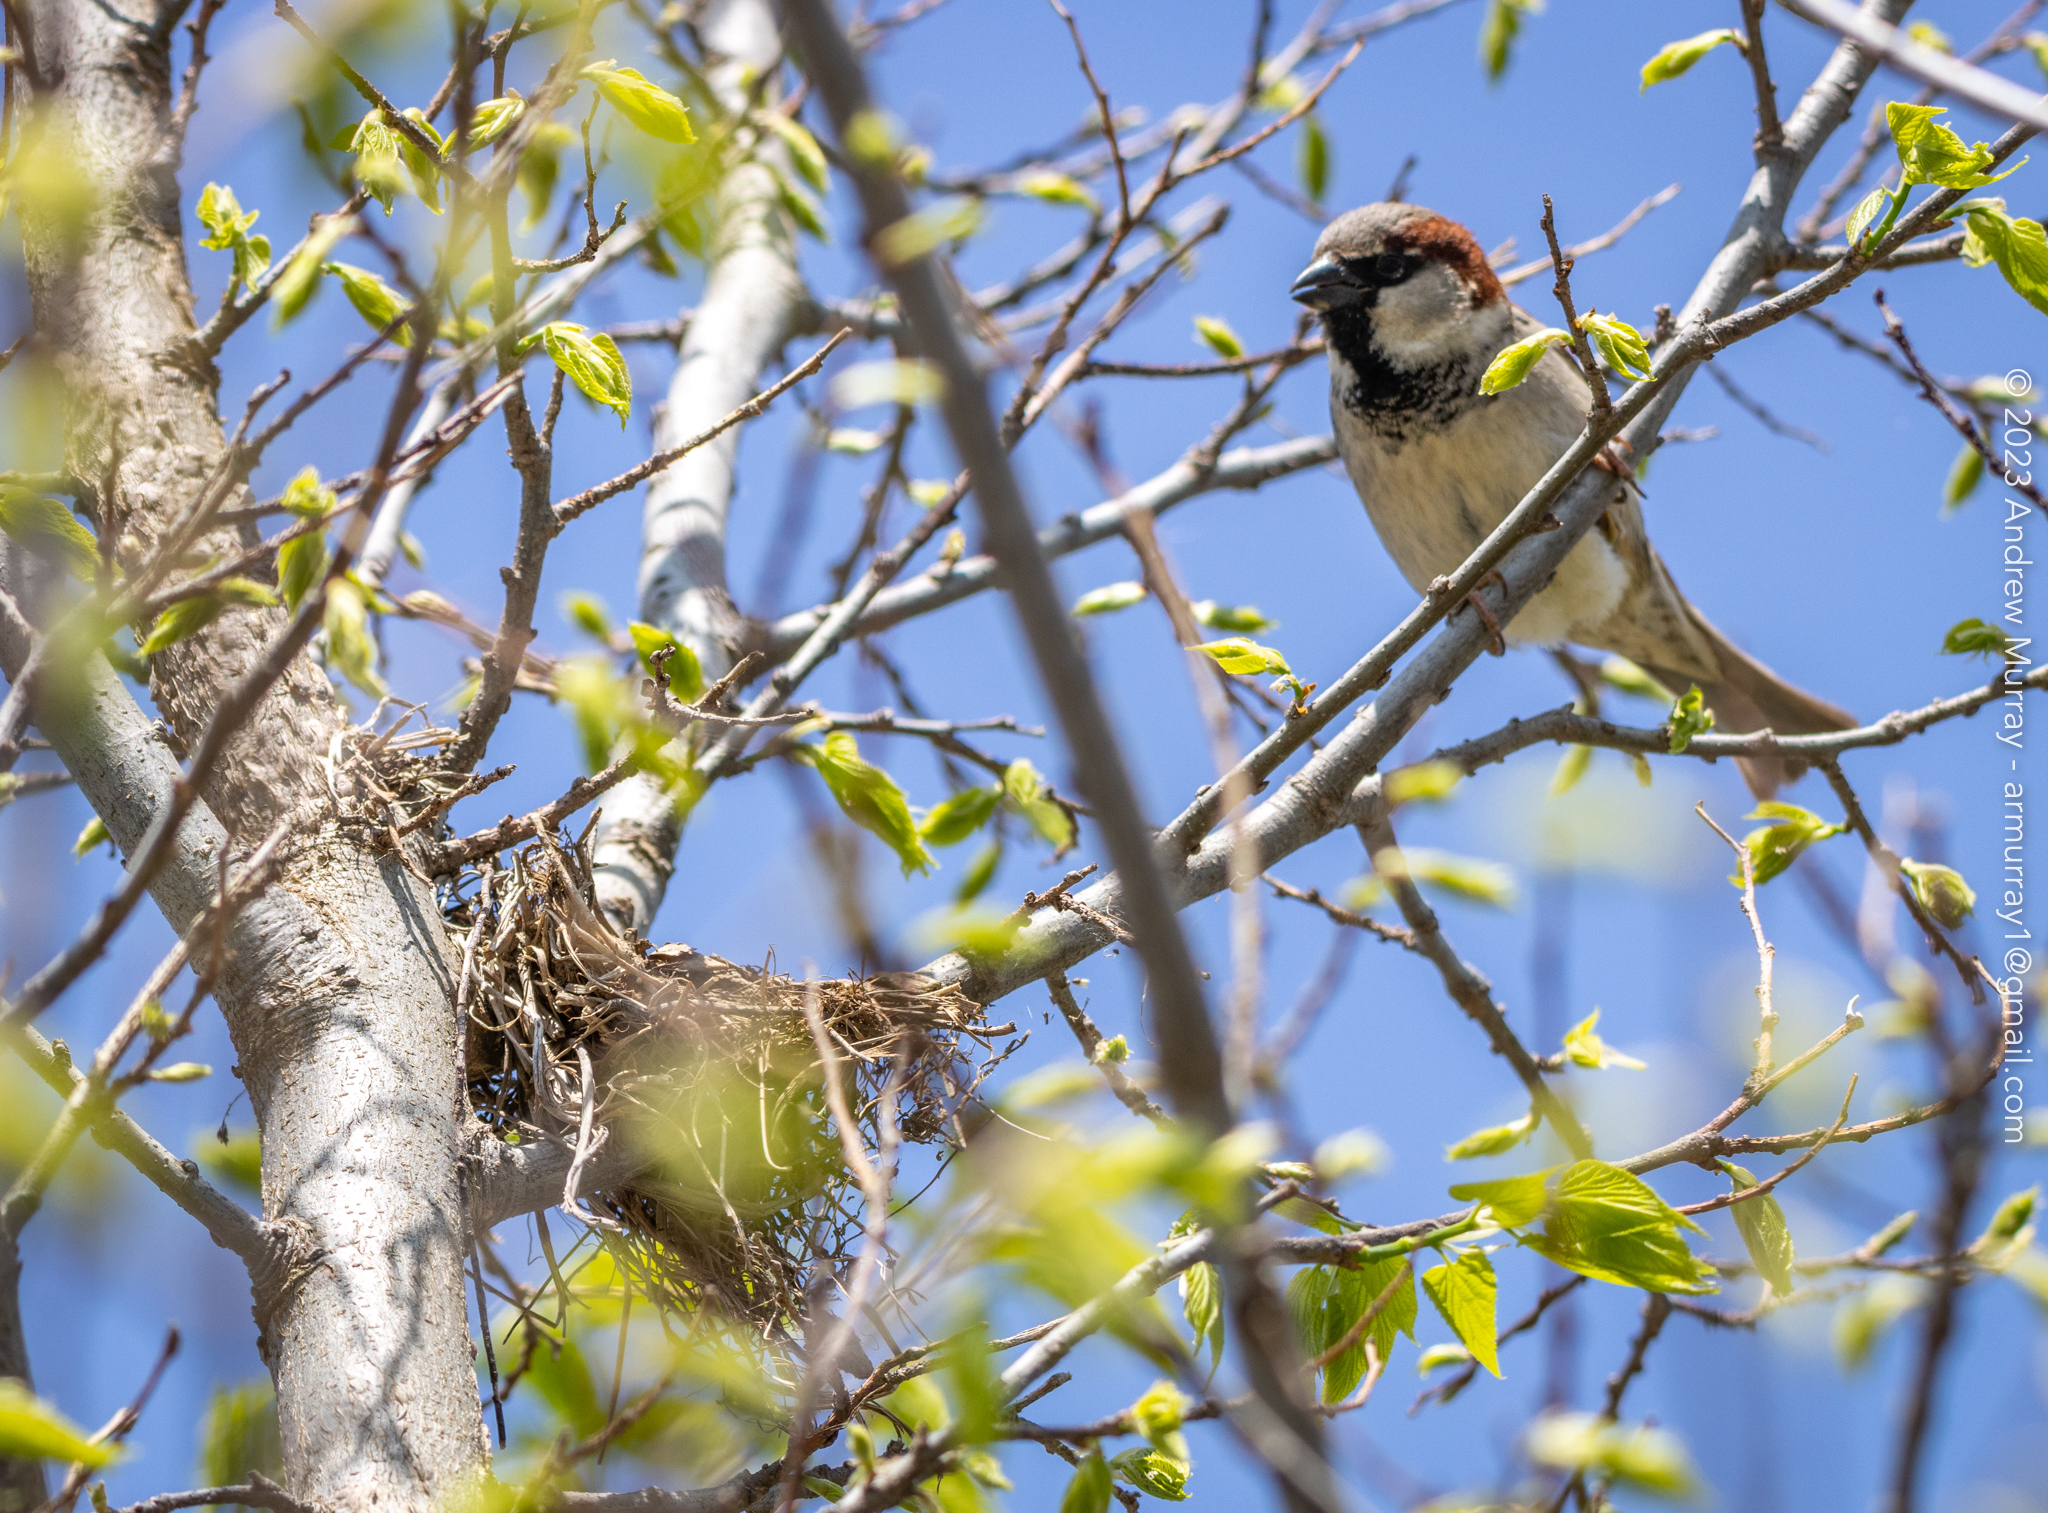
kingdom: Animalia
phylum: Chordata
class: Aves
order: Passeriformes
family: Passeridae
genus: Passer
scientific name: Passer domesticus
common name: House sparrow
